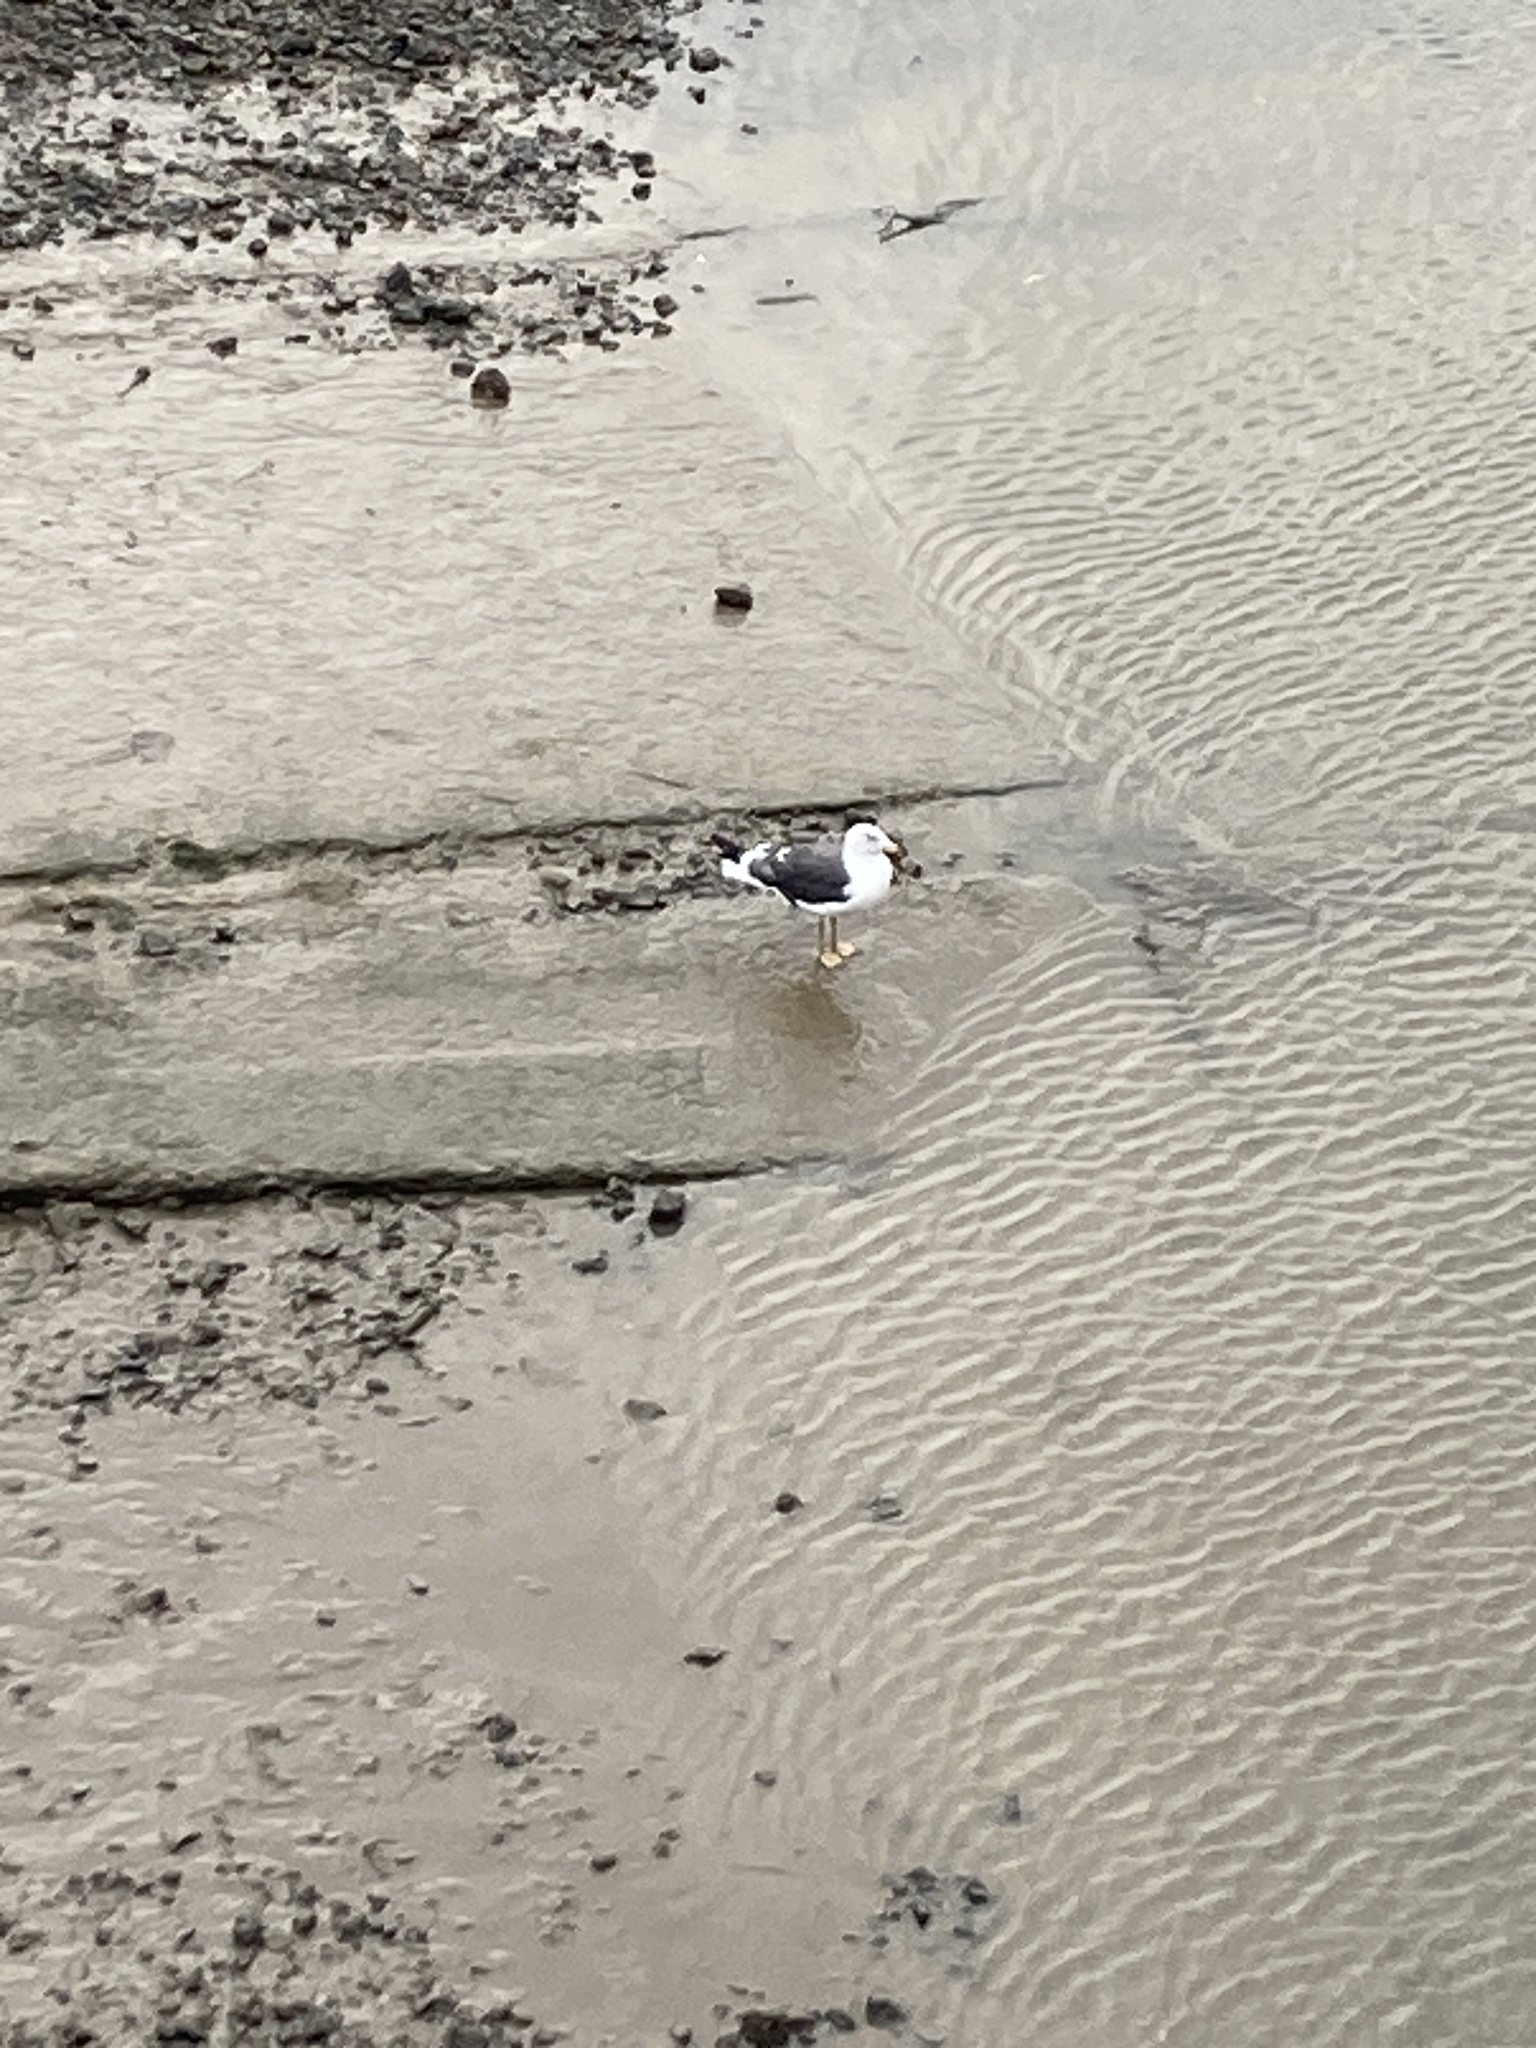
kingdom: Animalia
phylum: Chordata
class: Aves
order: Charadriiformes
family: Laridae
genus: Larus
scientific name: Larus fuscus
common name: Lesser black-backed gull
